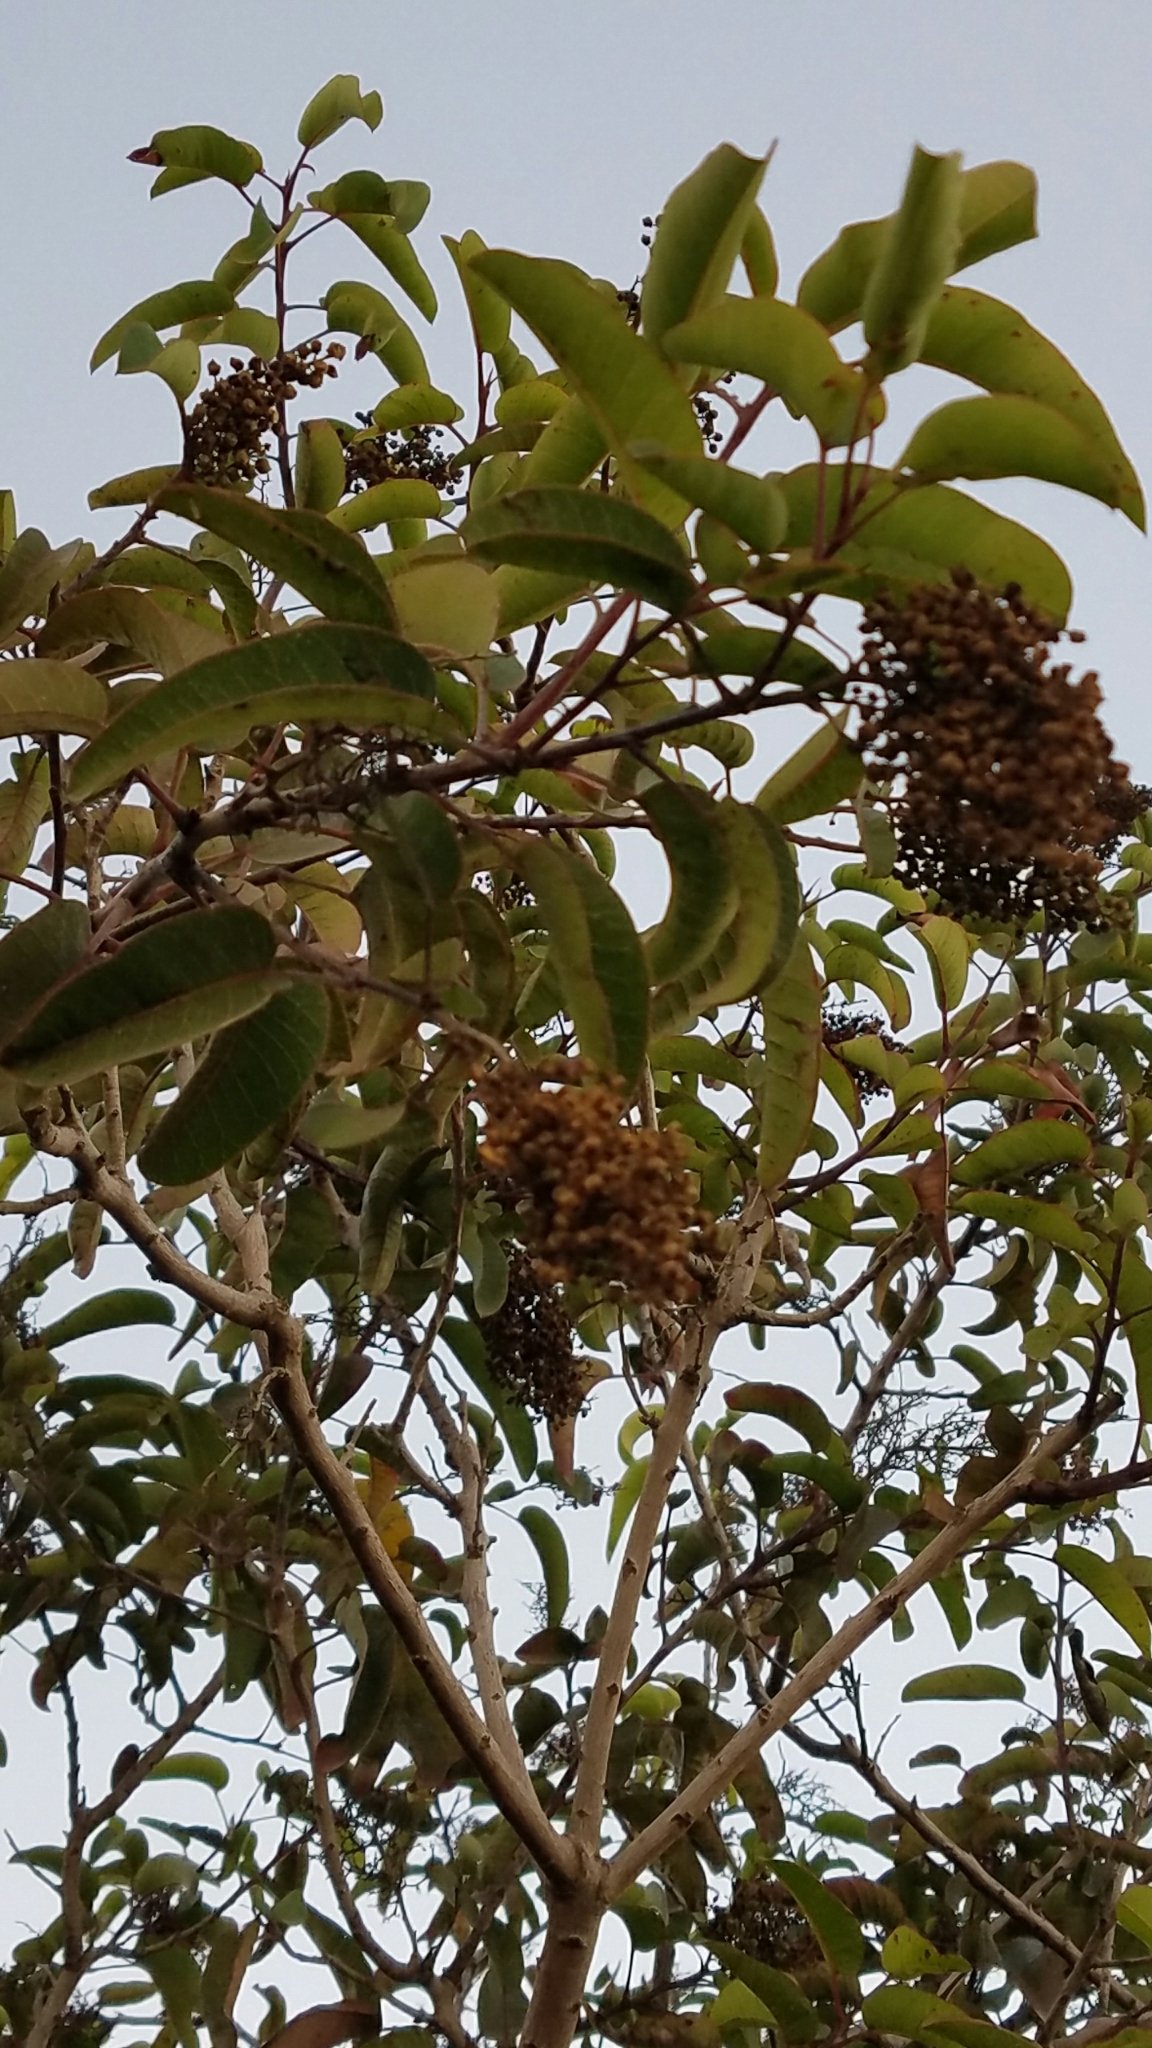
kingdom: Plantae
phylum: Tracheophyta
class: Magnoliopsida
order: Sapindales
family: Anacardiaceae
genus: Malosma
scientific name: Malosma laurina
